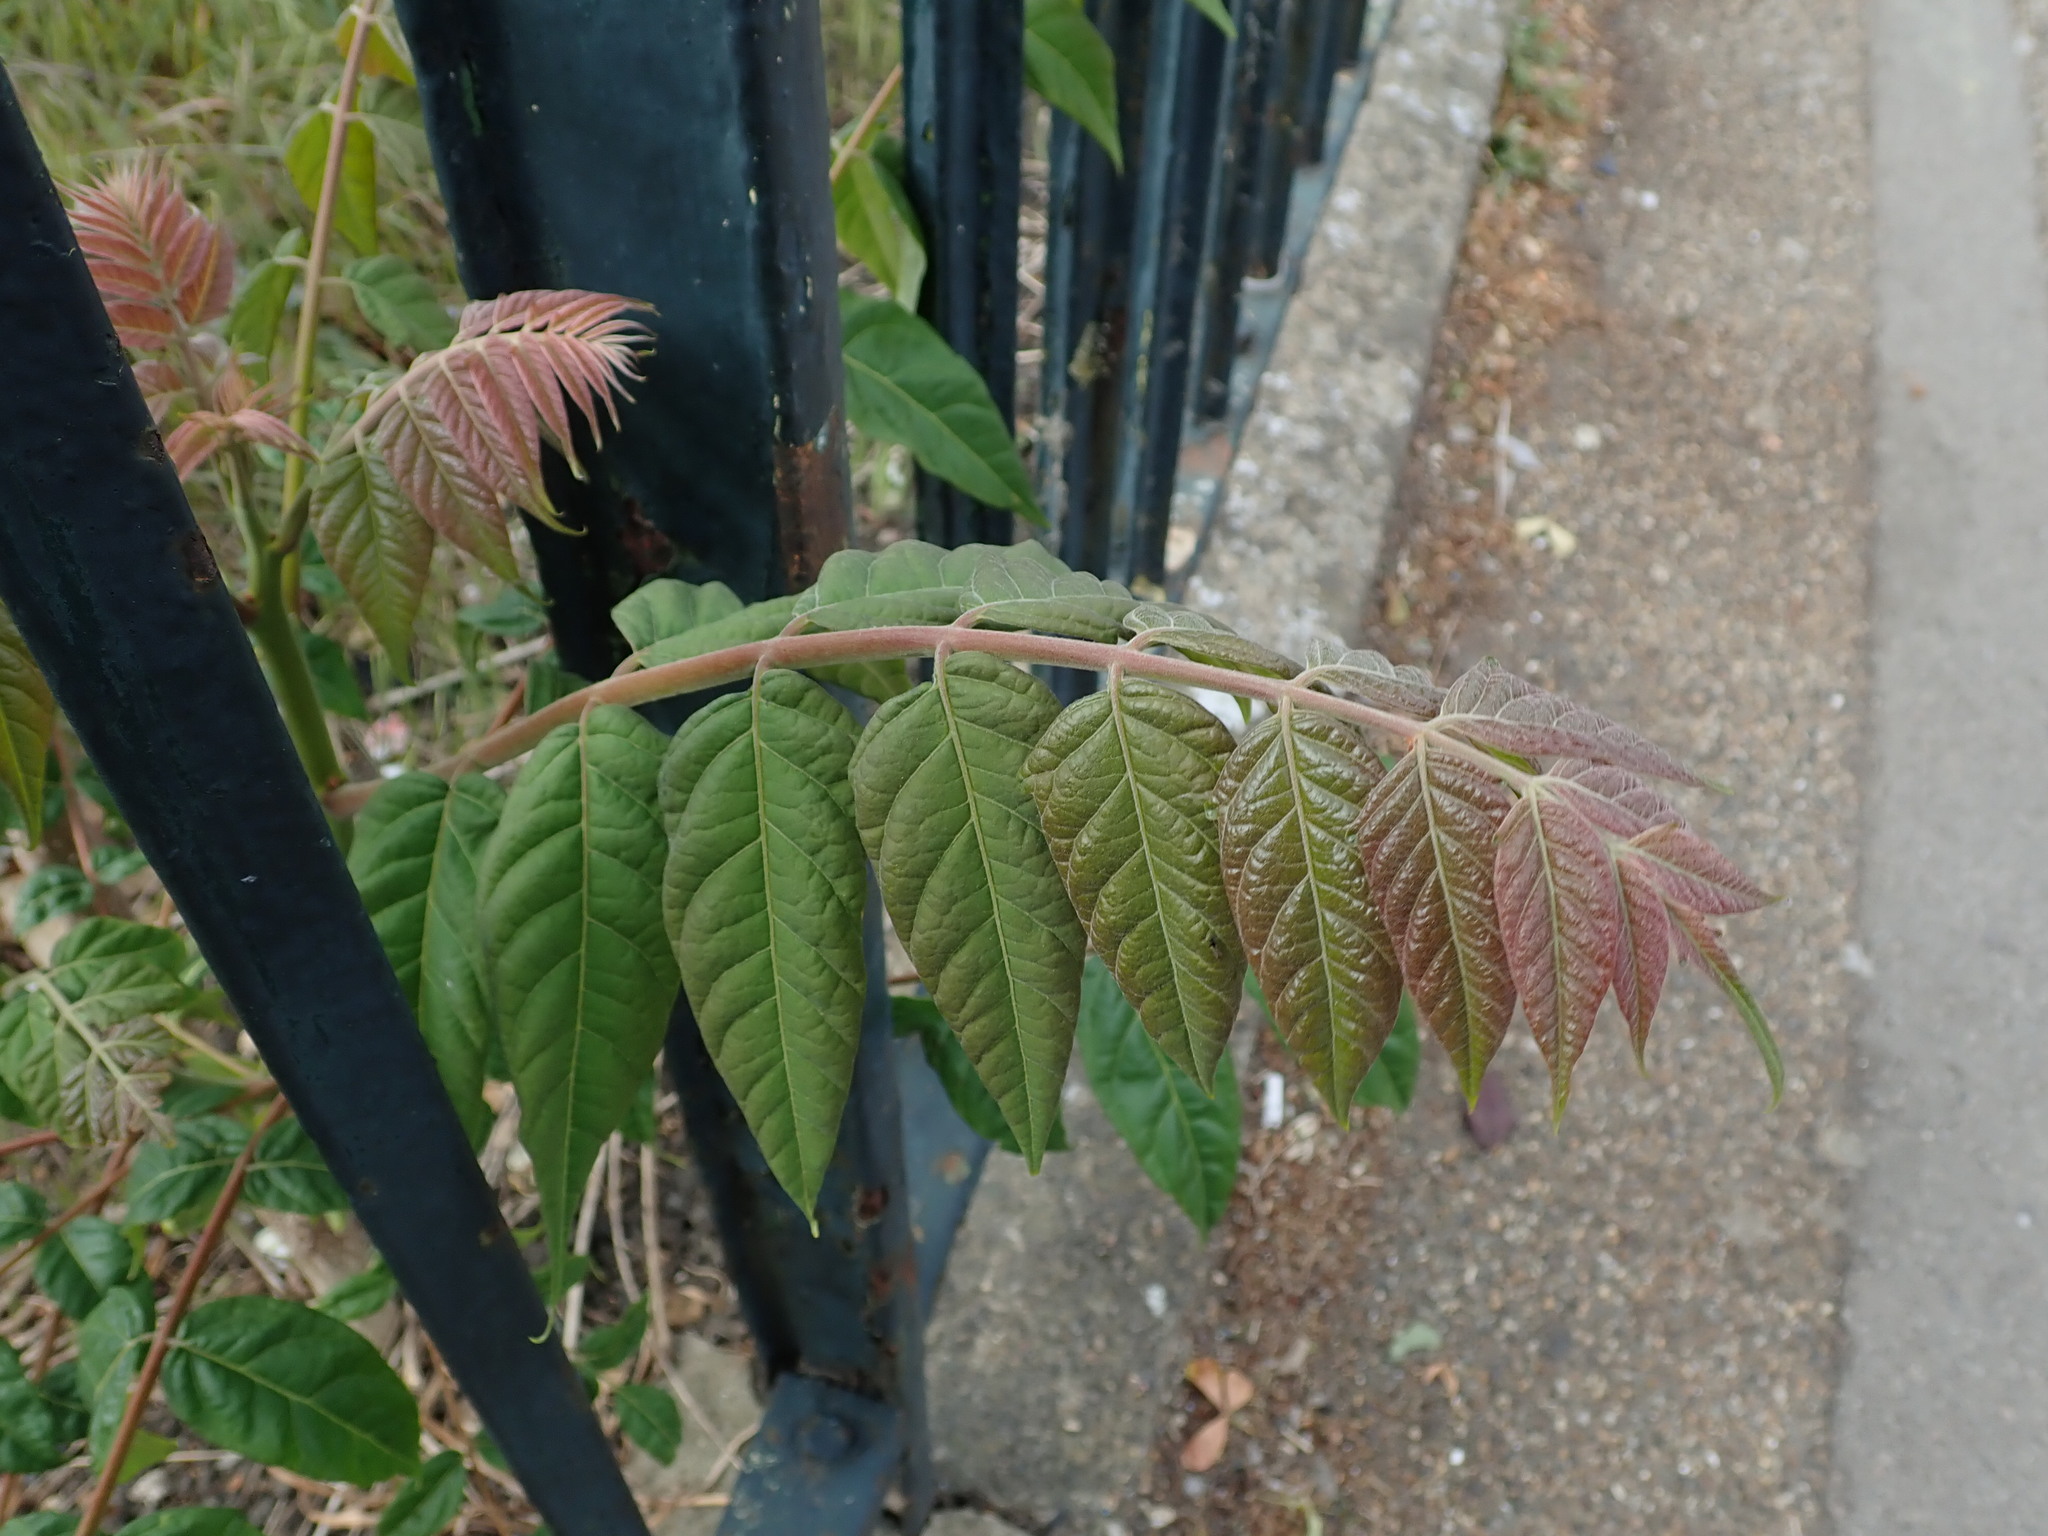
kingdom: Plantae
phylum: Tracheophyta
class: Magnoliopsida
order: Sapindales
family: Simaroubaceae
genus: Ailanthus
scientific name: Ailanthus altissima
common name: Tree-of-heaven
